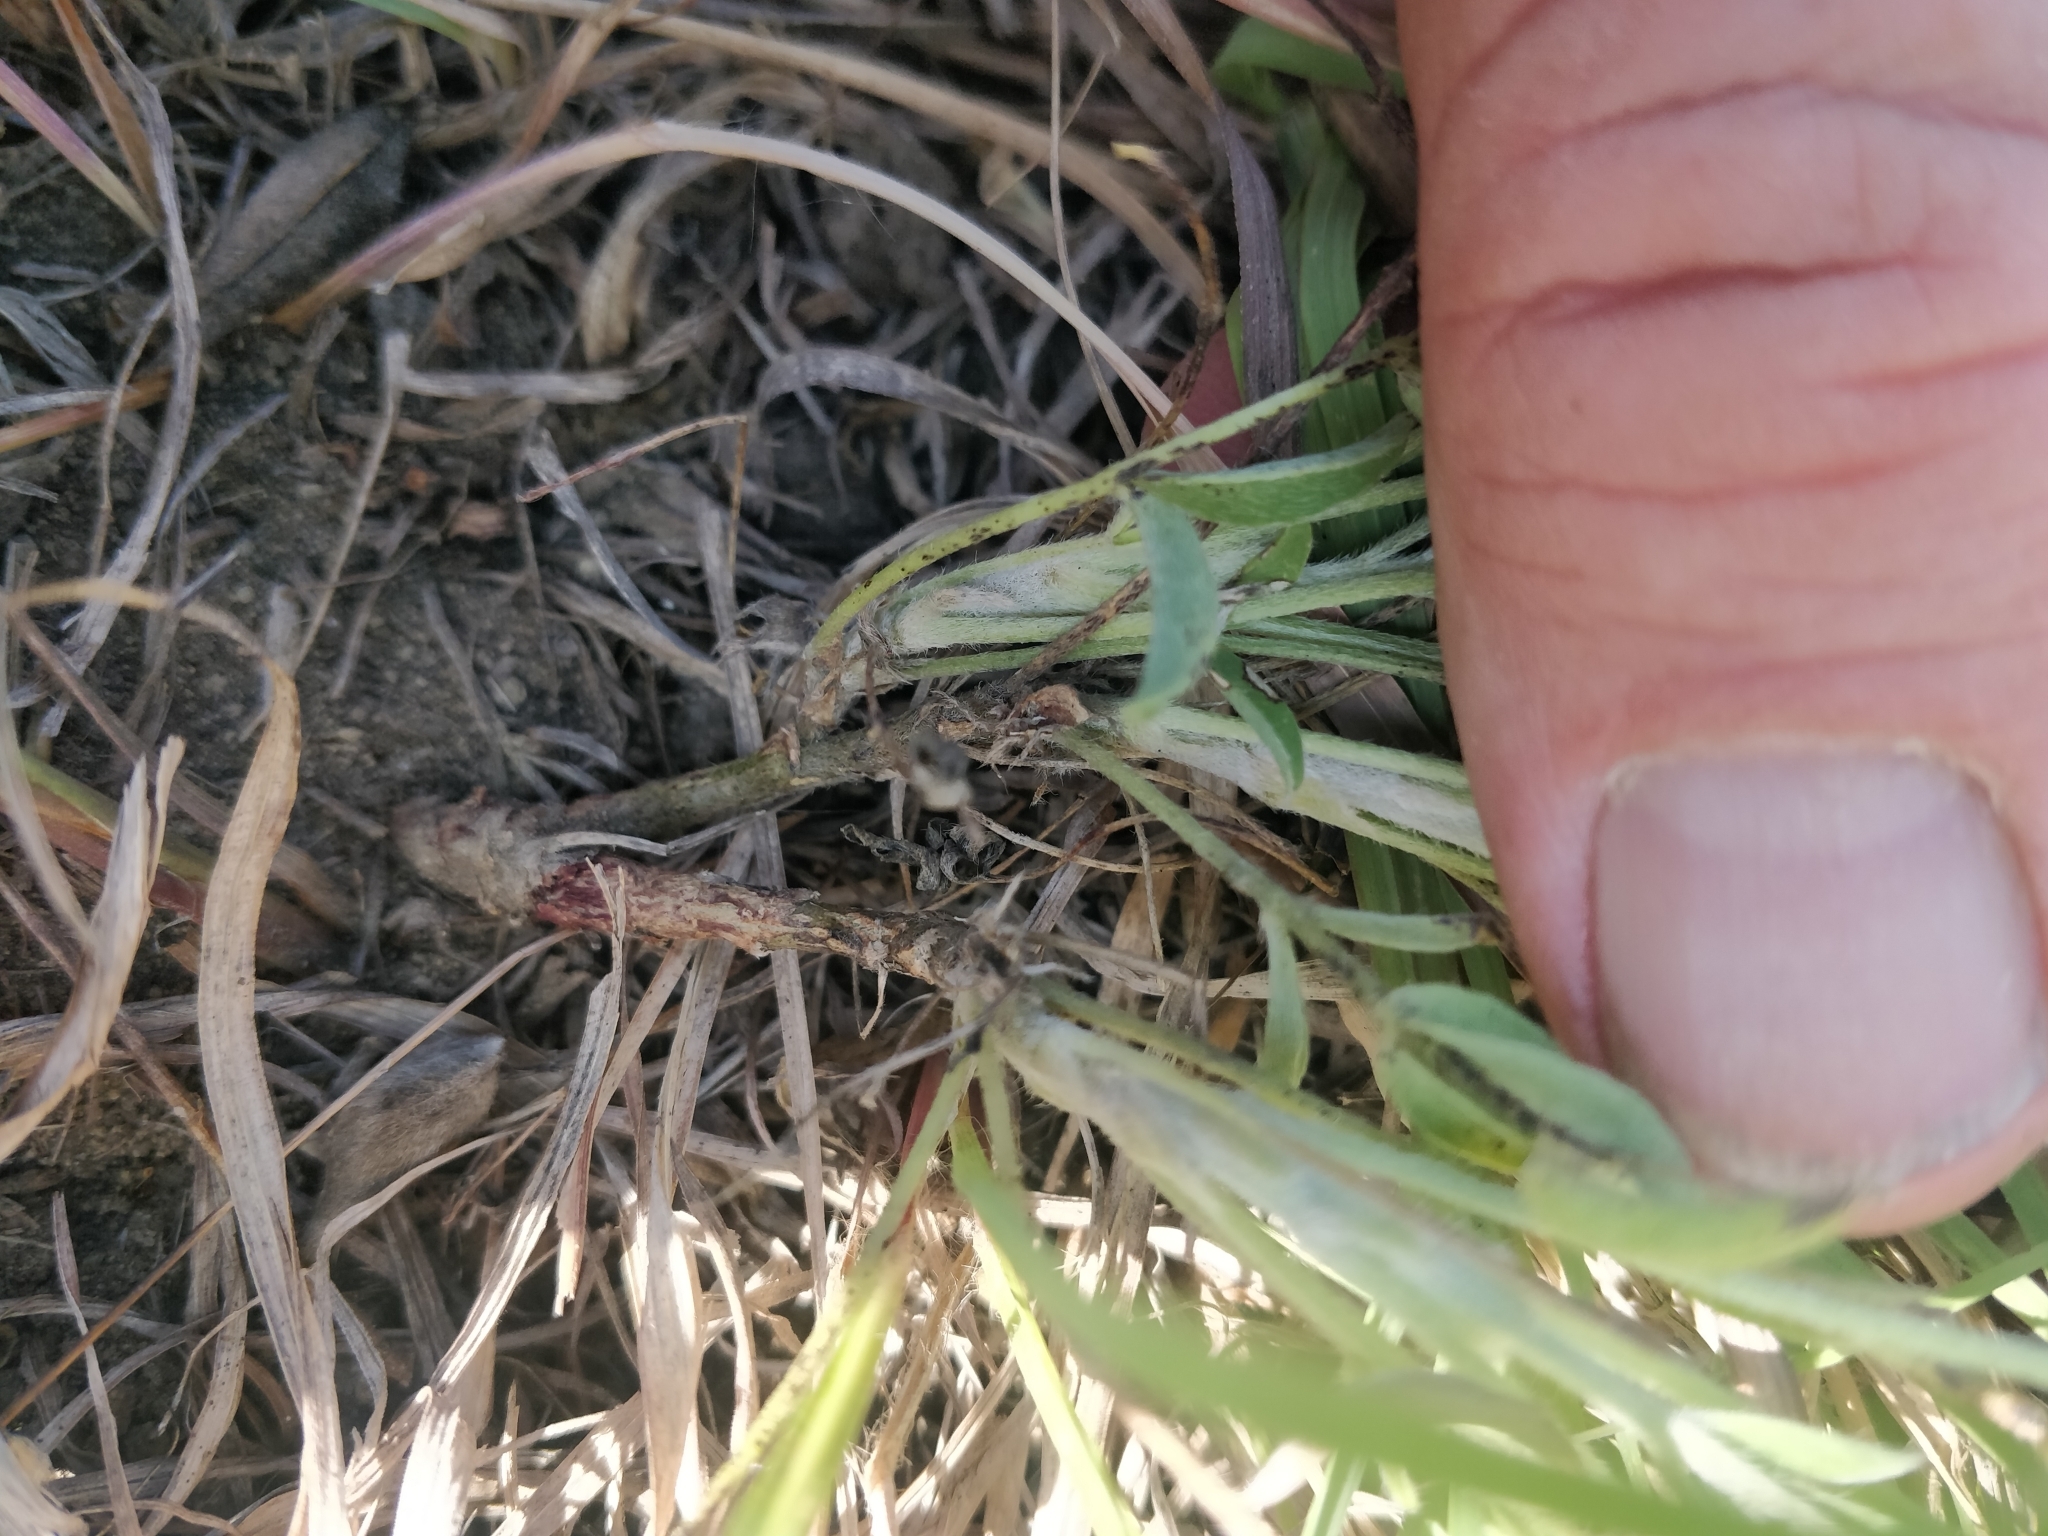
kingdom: Plantae
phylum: Tracheophyta
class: Magnoliopsida
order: Fabales
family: Fabaceae
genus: Astragalus
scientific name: Astragalus lotiflorus
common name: Lotus milk-vetch
